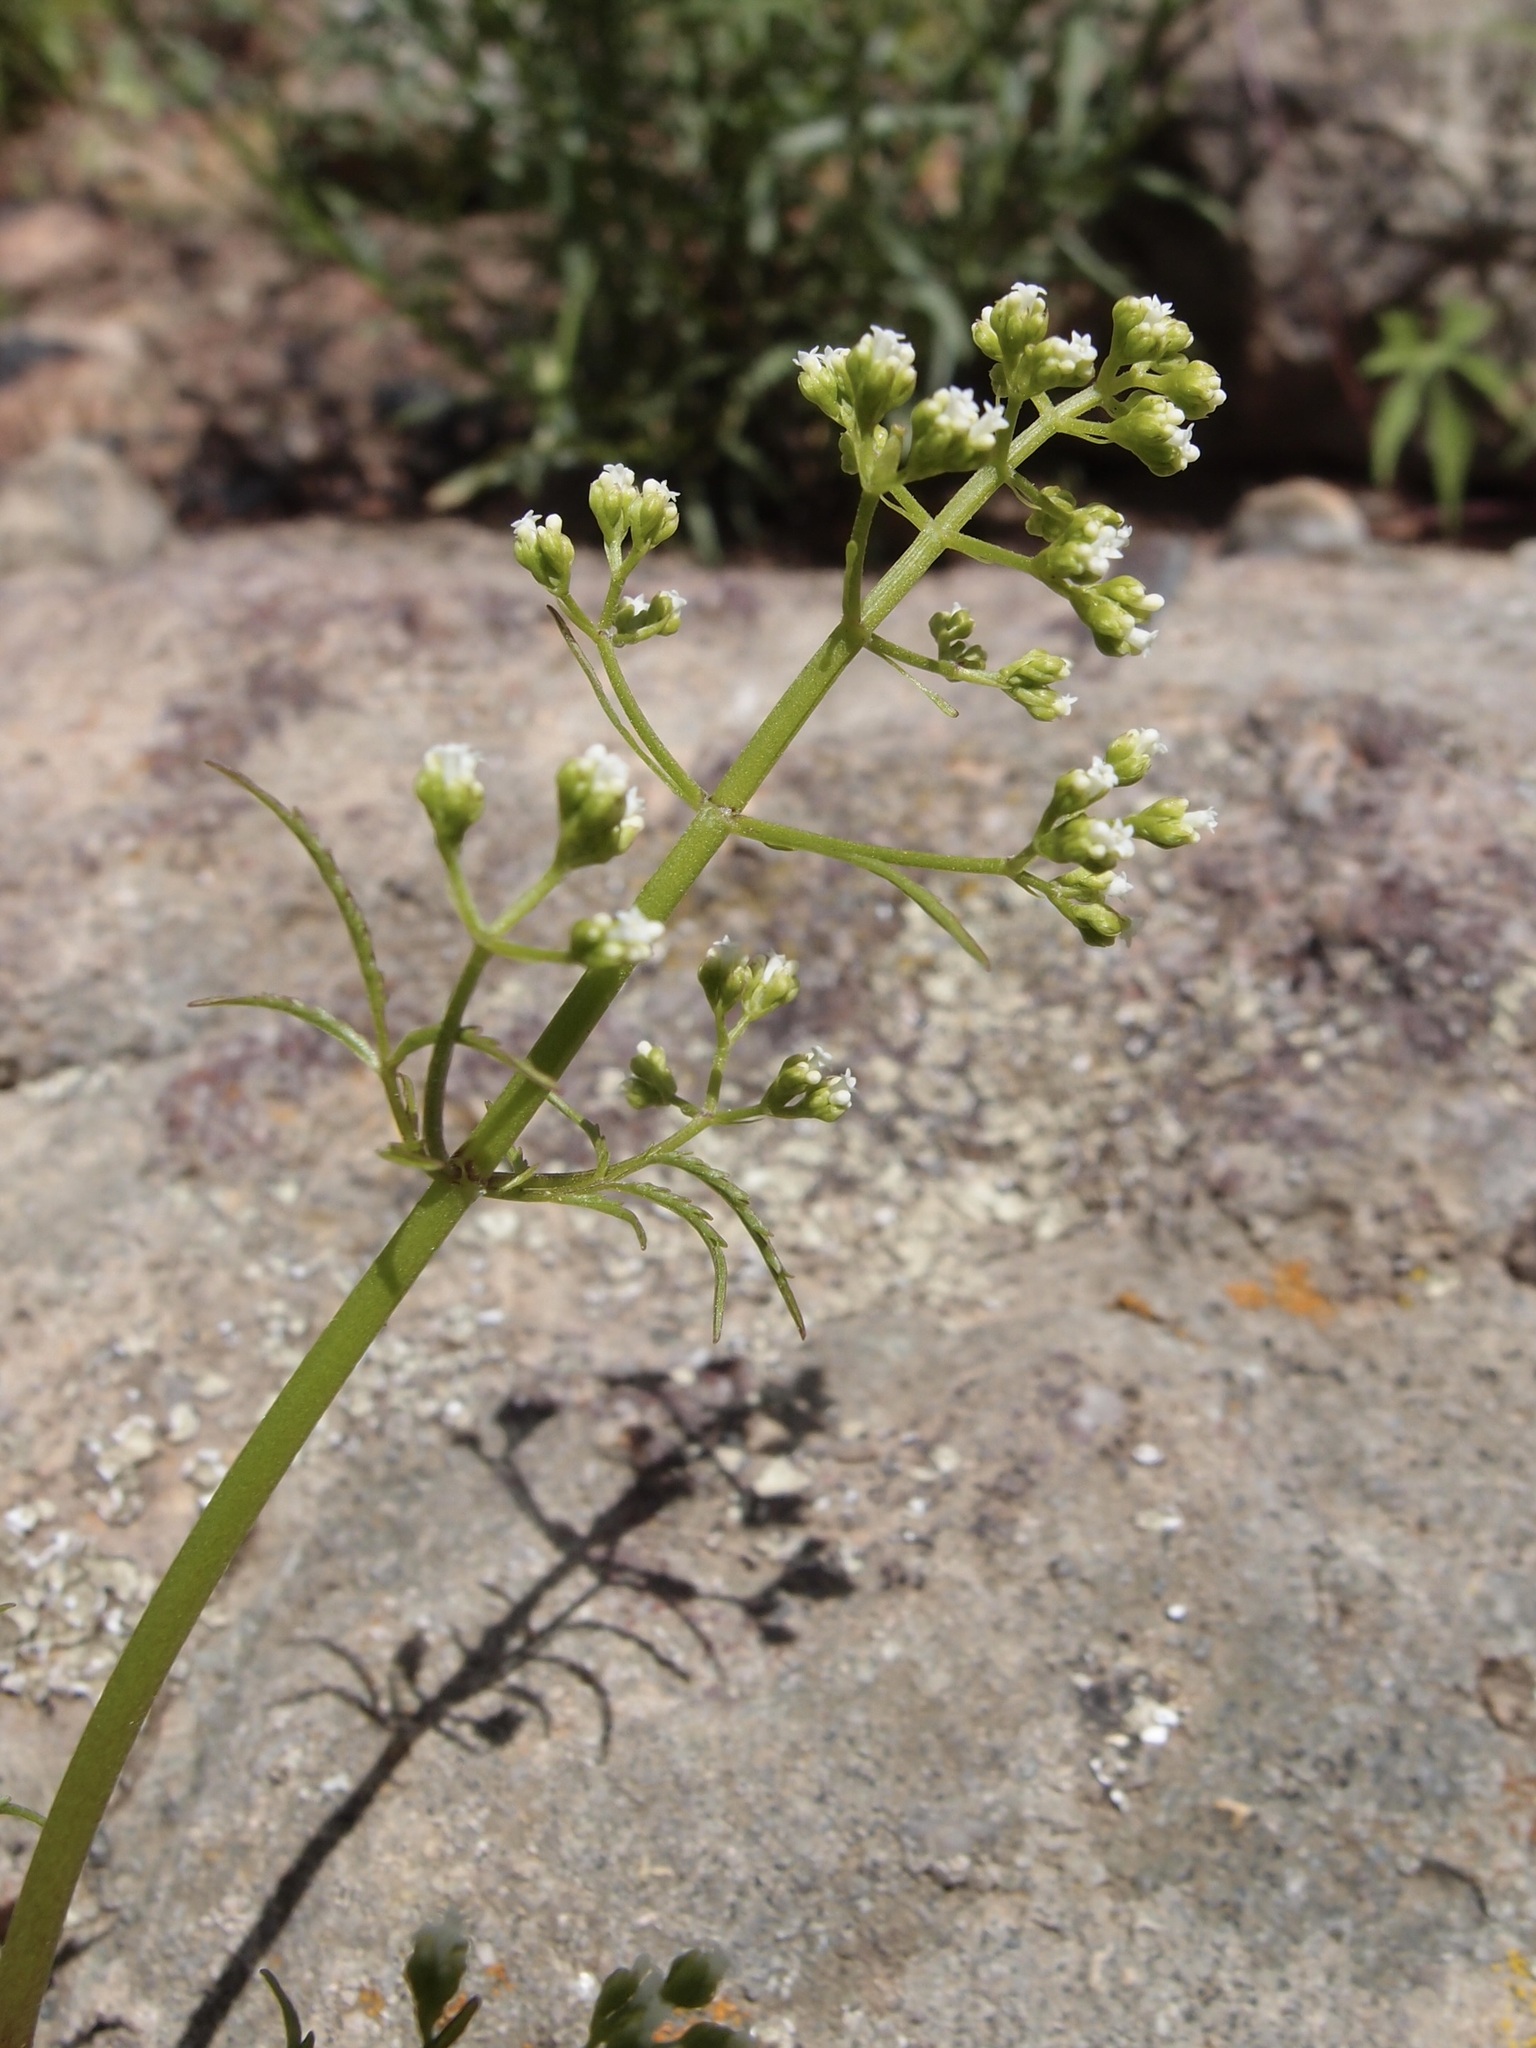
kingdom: Plantae
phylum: Tracheophyta
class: Magnoliopsida
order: Dipsacales
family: Caprifoliaceae
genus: Valeriana
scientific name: Valeriana sorbifolia
